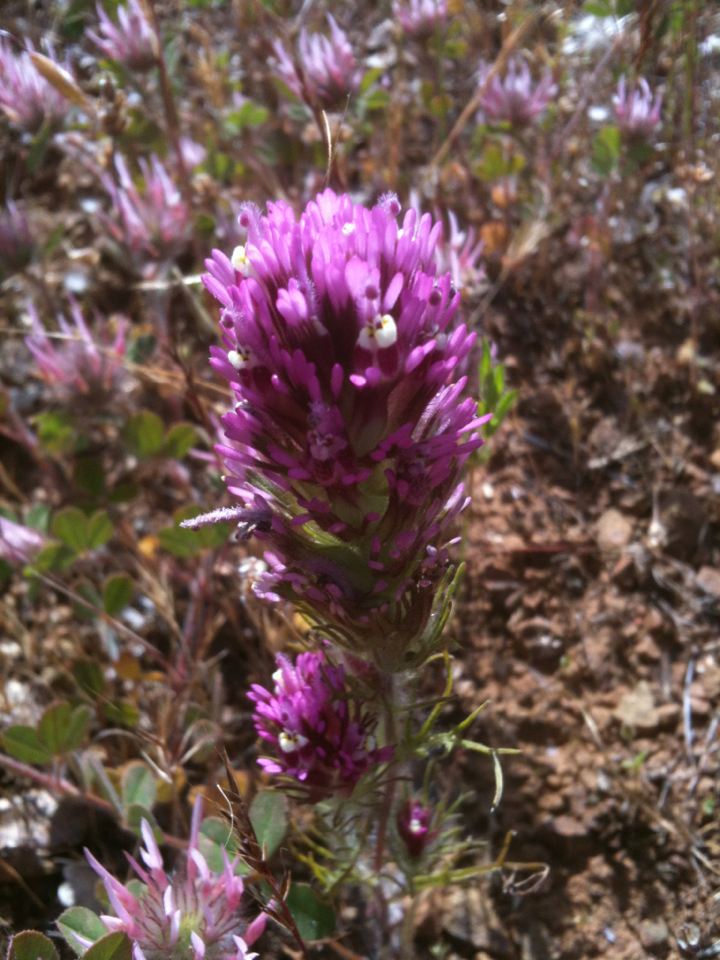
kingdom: Plantae
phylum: Tracheophyta
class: Magnoliopsida
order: Lamiales
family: Orobanchaceae
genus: Castilleja
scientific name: Castilleja exserta
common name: Purple owl-clover
